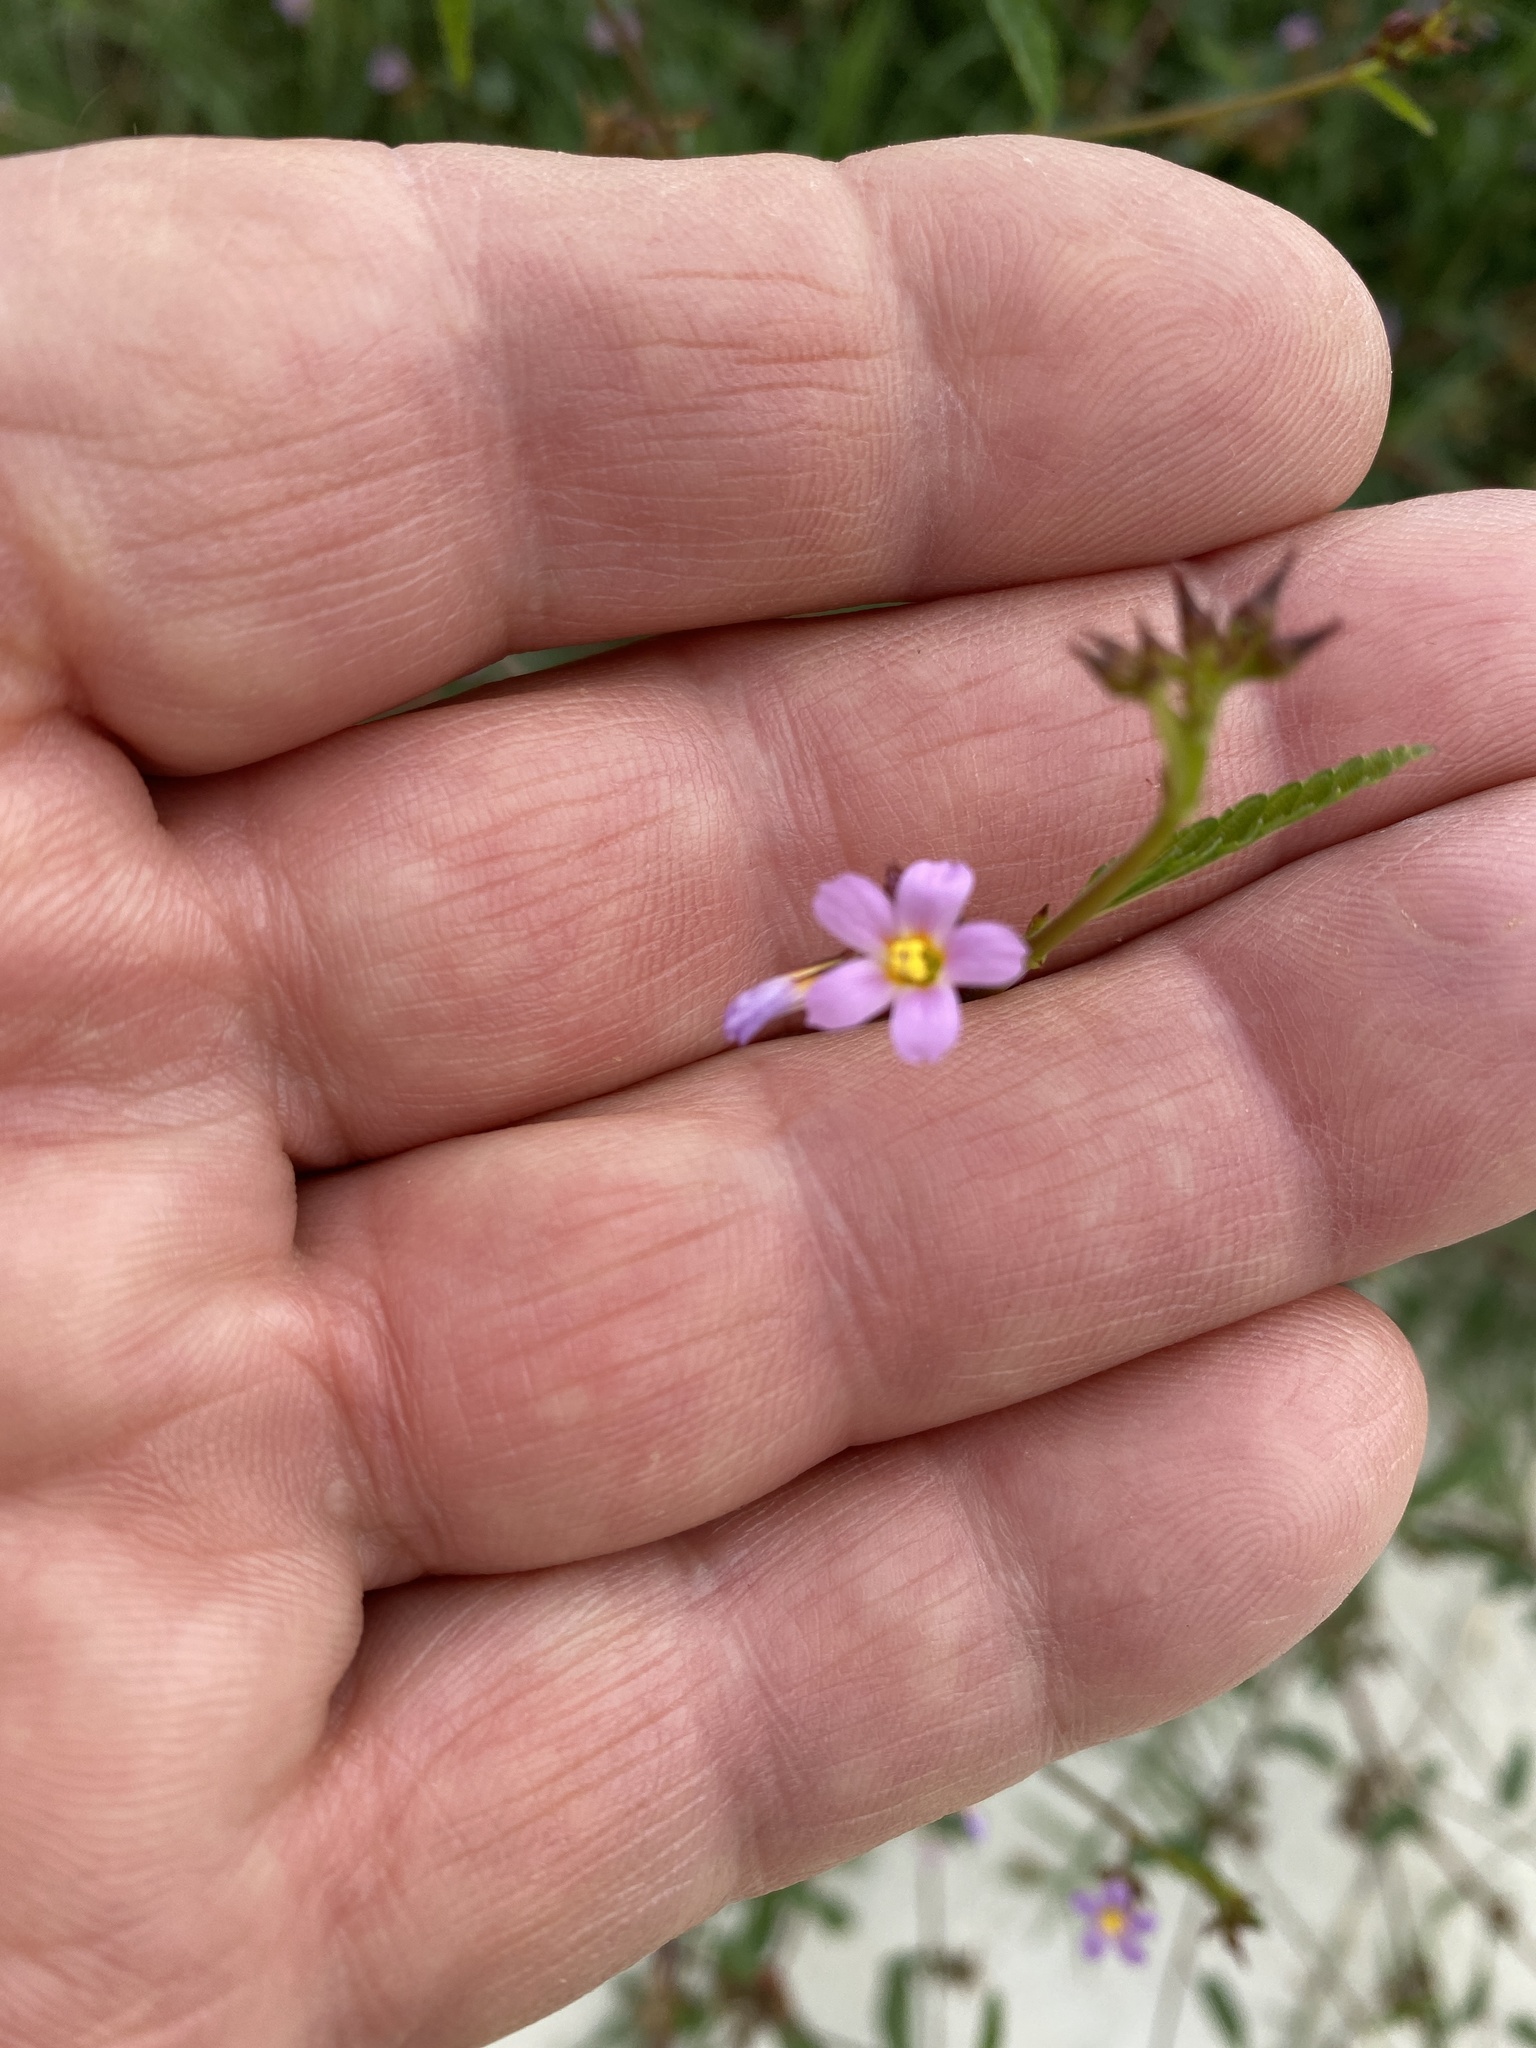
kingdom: Plantae
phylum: Tracheophyta
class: Magnoliopsida
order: Malvales
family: Malvaceae
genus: Melochia
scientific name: Melochia pyramidata
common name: Pyramidflower
